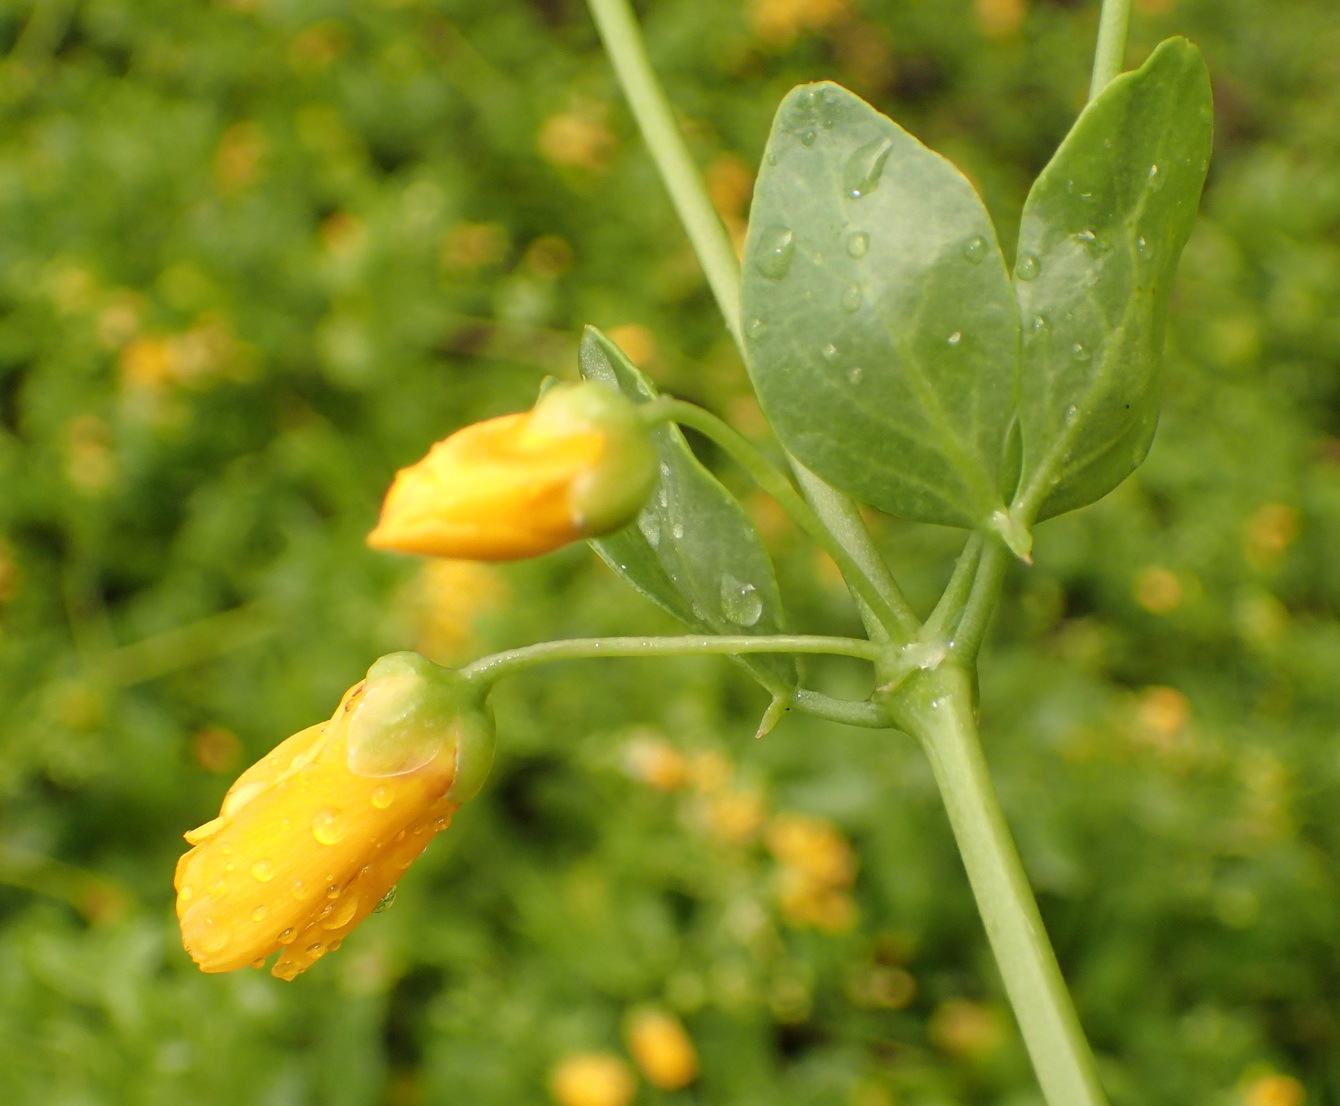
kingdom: Plantae
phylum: Tracheophyta
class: Magnoliopsida
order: Zygophyllales
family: Zygophyllaceae
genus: Roepera
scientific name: Roepera foetida
